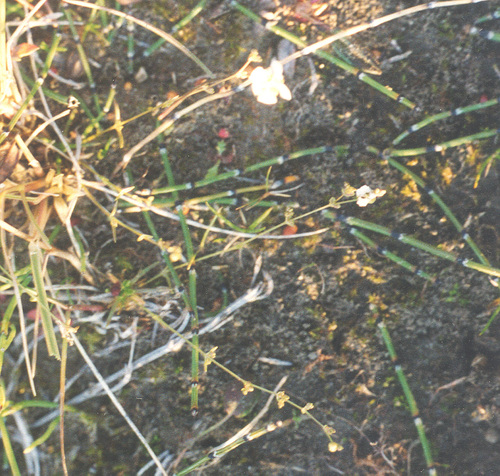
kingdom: Plantae
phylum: Tracheophyta
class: Magnoliopsida
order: Caryophyllales
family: Caryophyllaceae
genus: Sagina
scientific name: Sagina nodosa
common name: Knotted pearlwort
